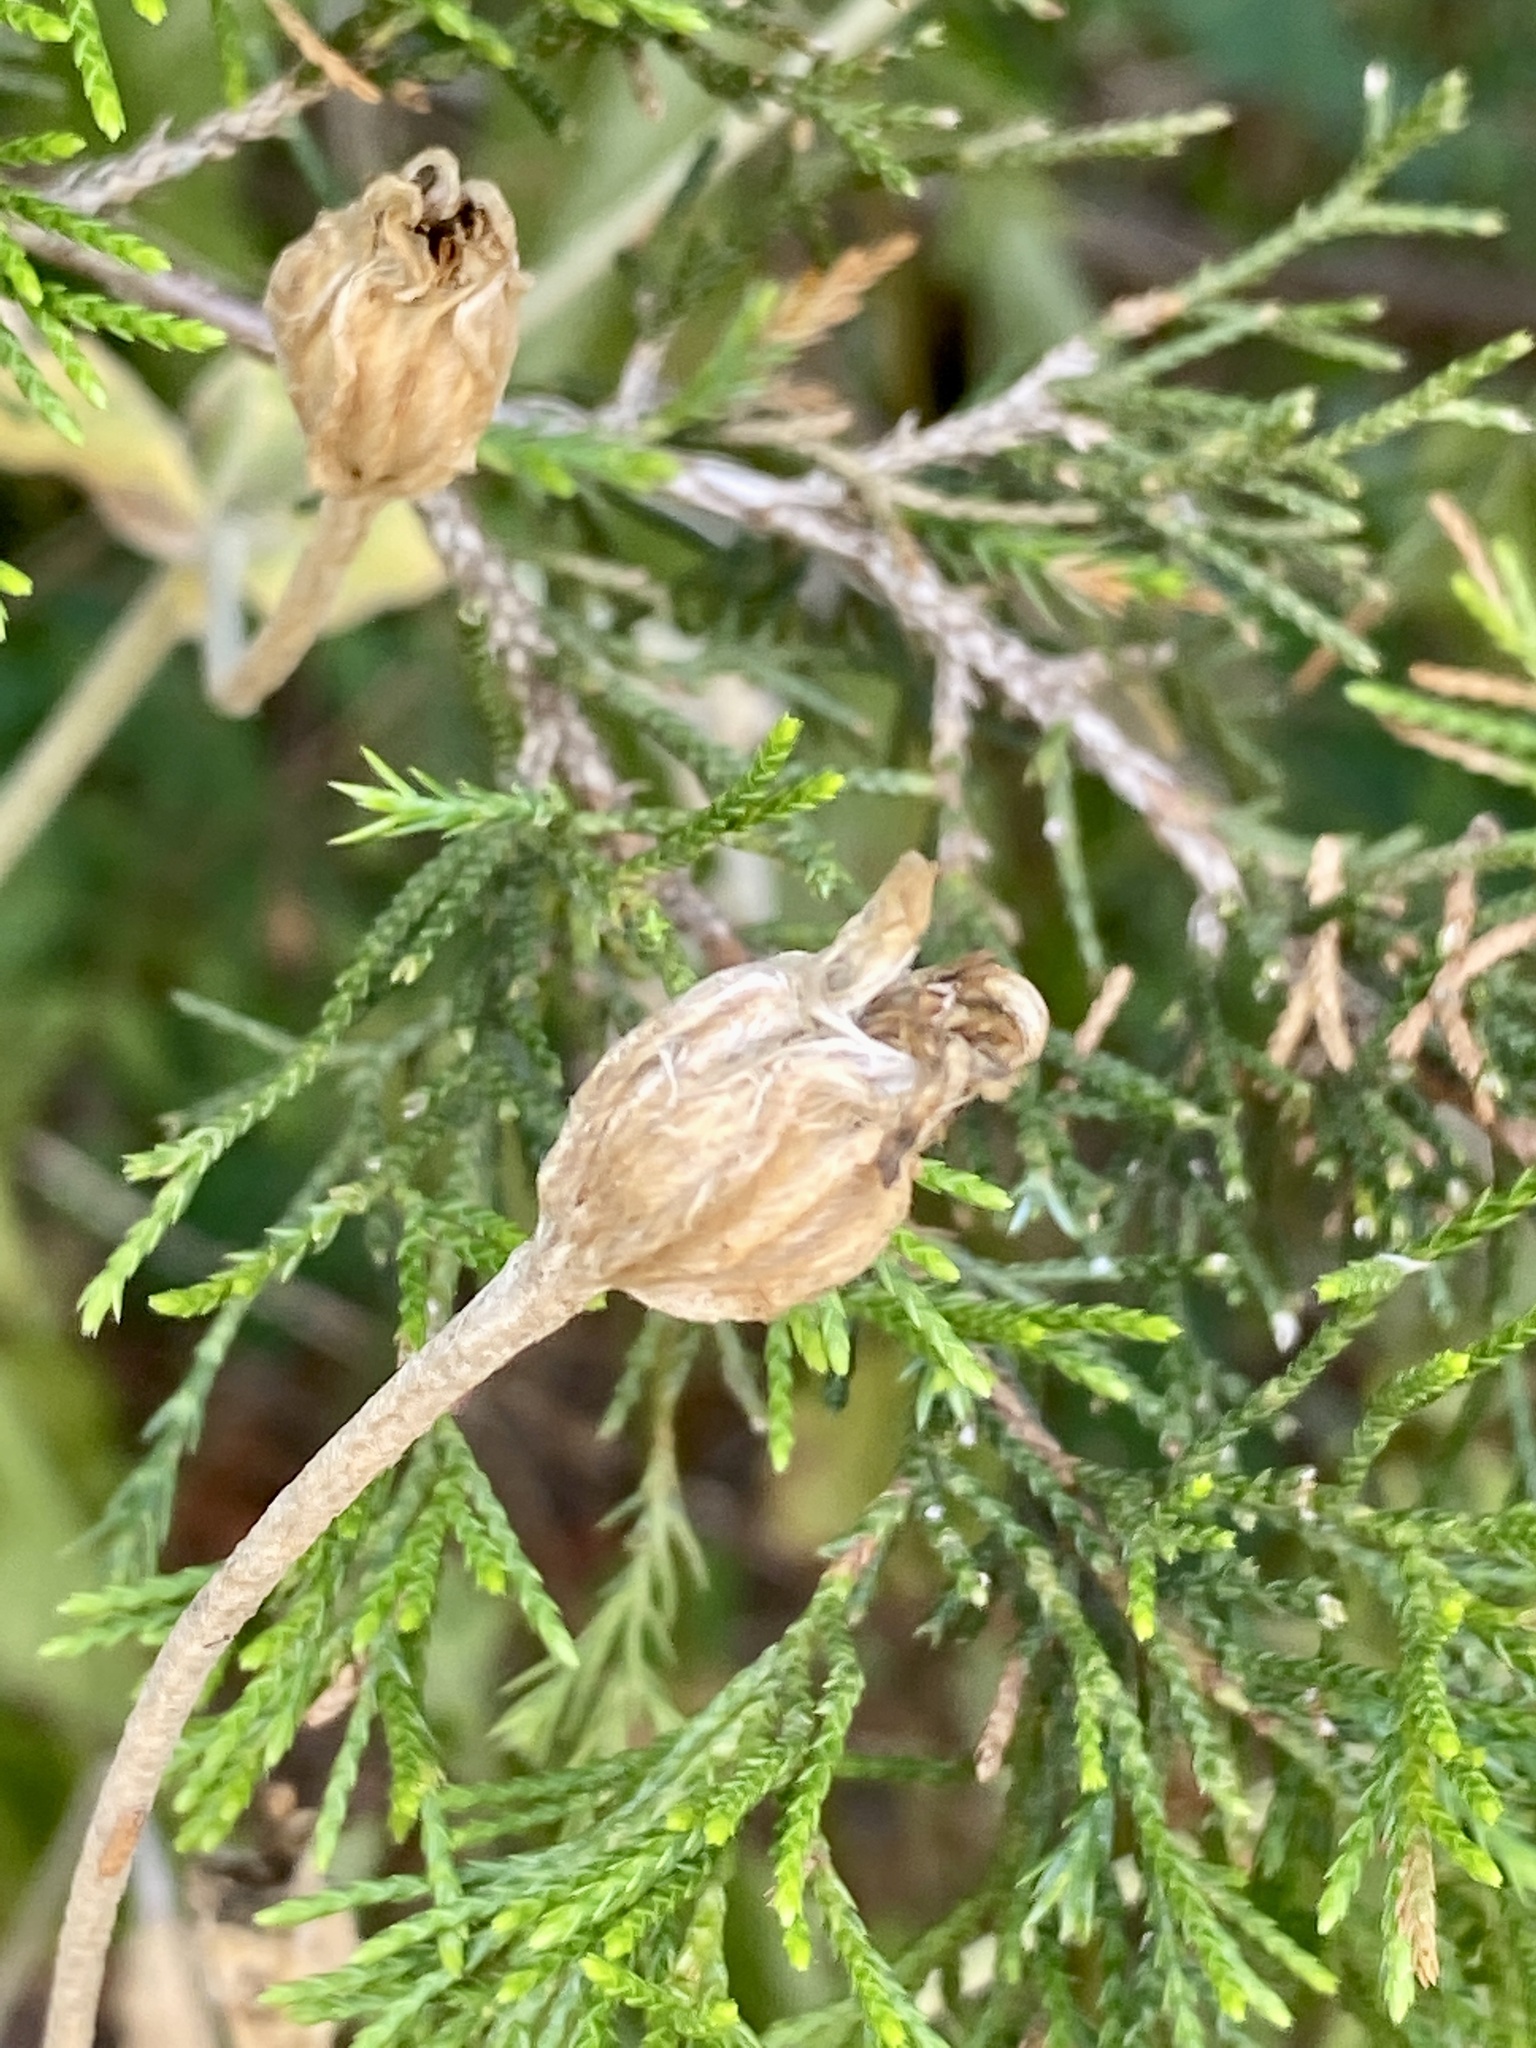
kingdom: Plantae
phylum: Tracheophyta
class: Magnoliopsida
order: Caryophyllales
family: Caryophyllaceae
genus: Silene
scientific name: Silene coronaria
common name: Rose campion
